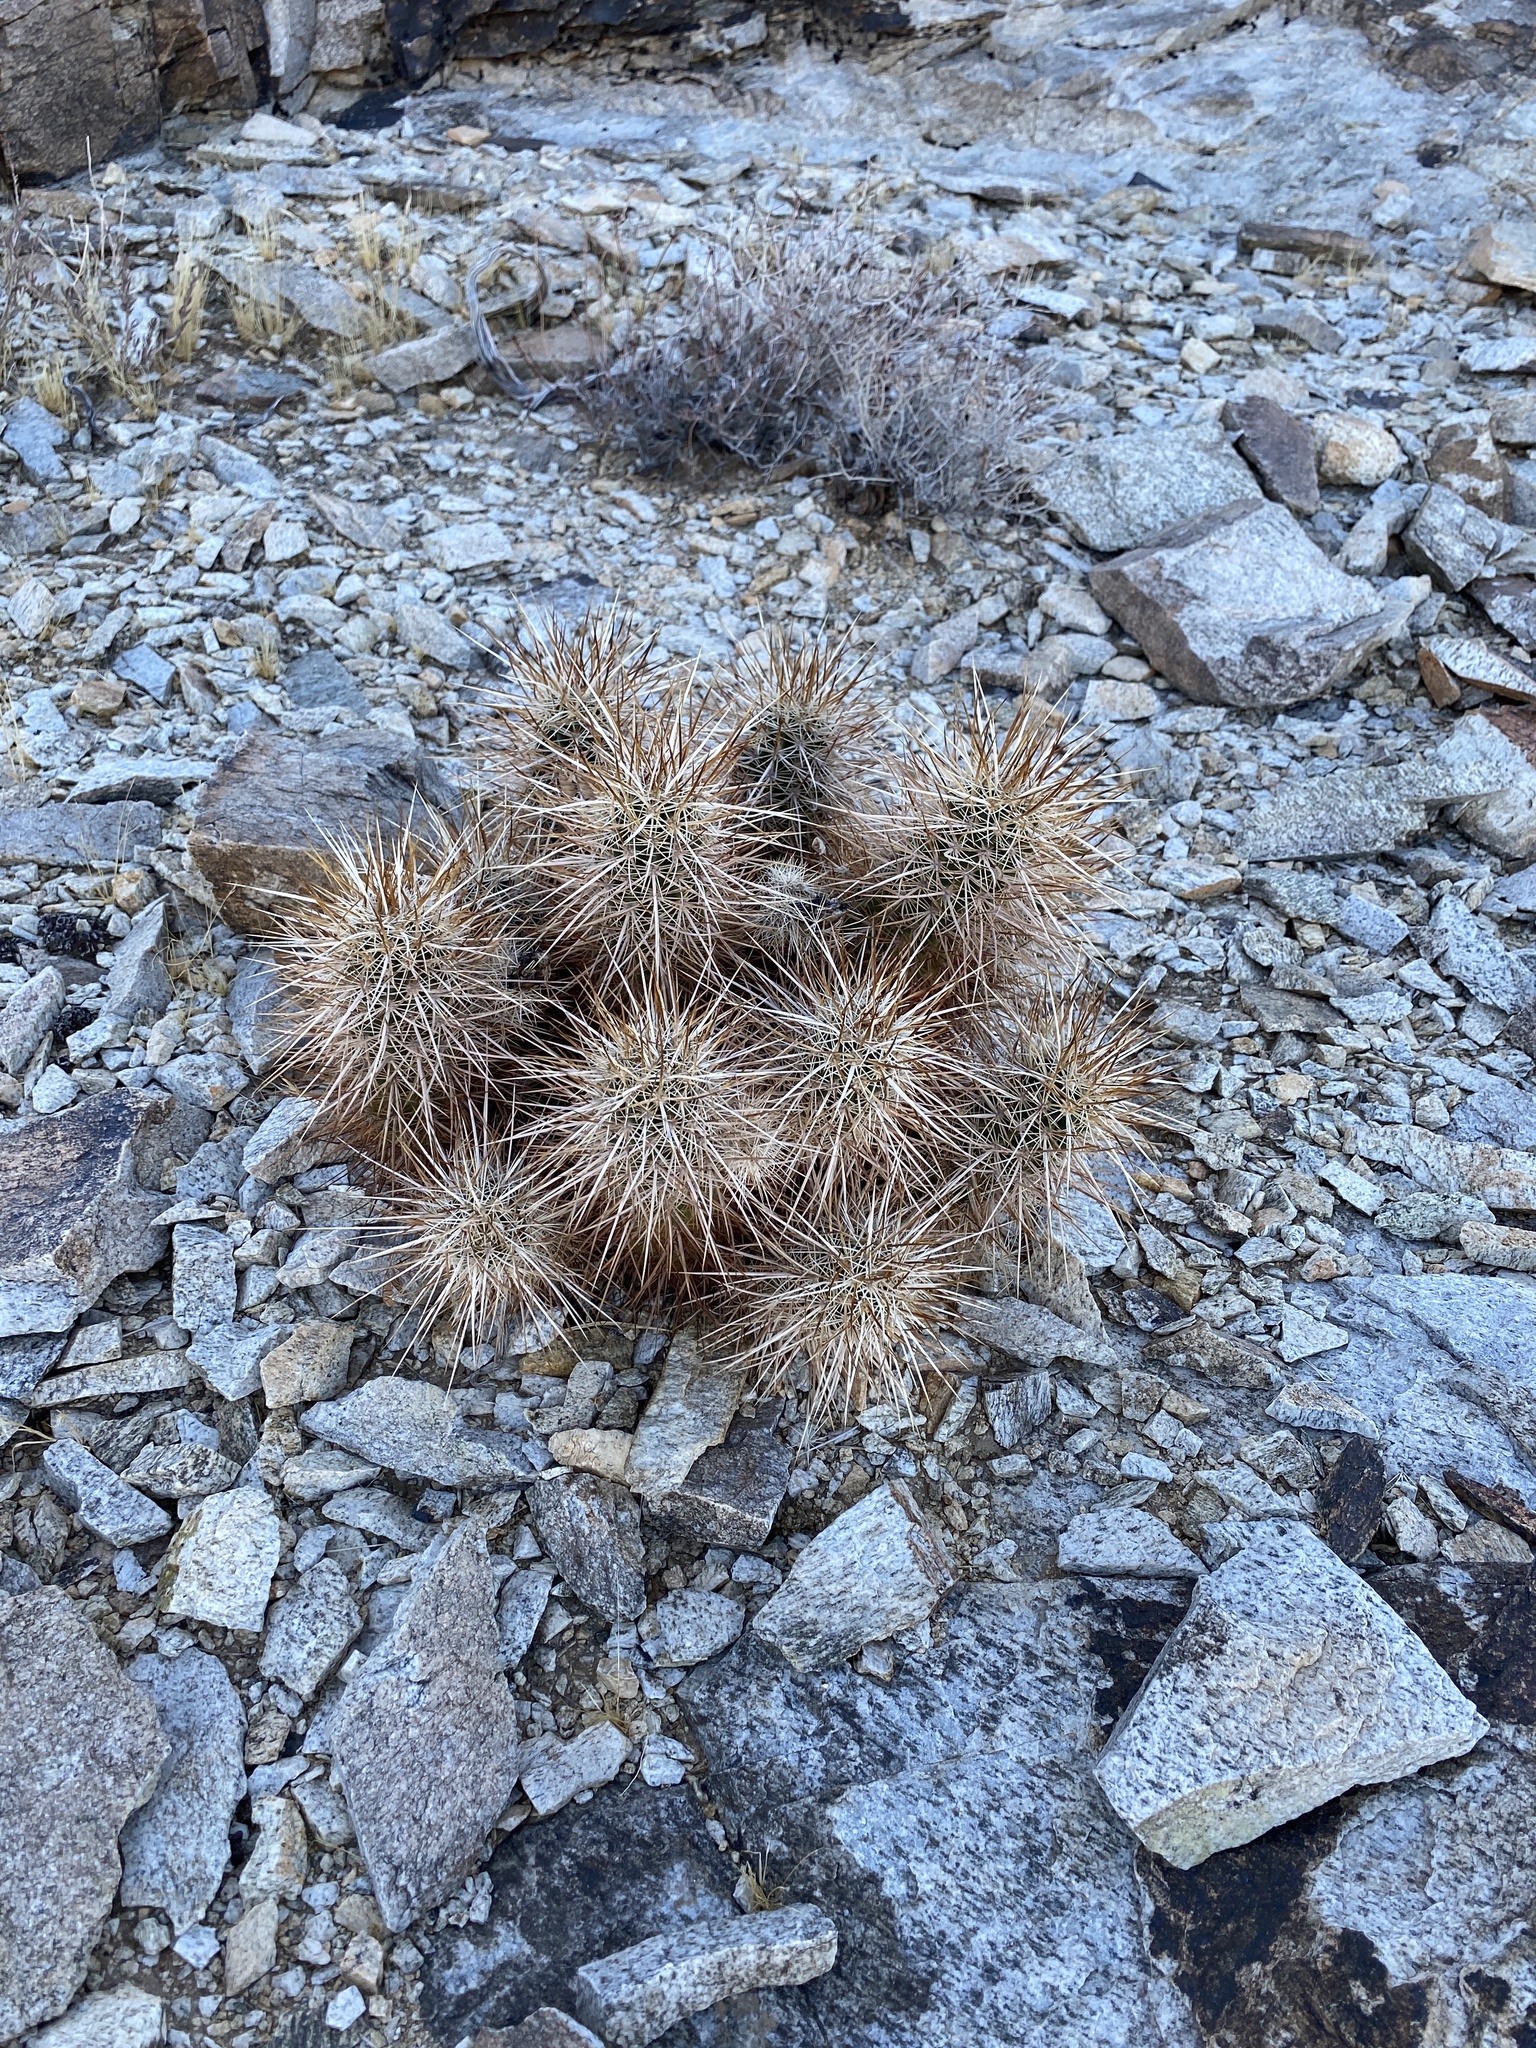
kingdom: Plantae
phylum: Tracheophyta
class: Magnoliopsida
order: Caryophyllales
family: Cactaceae
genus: Echinocereus
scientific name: Echinocereus engelmannii
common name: Engelmann's hedgehog cactus
